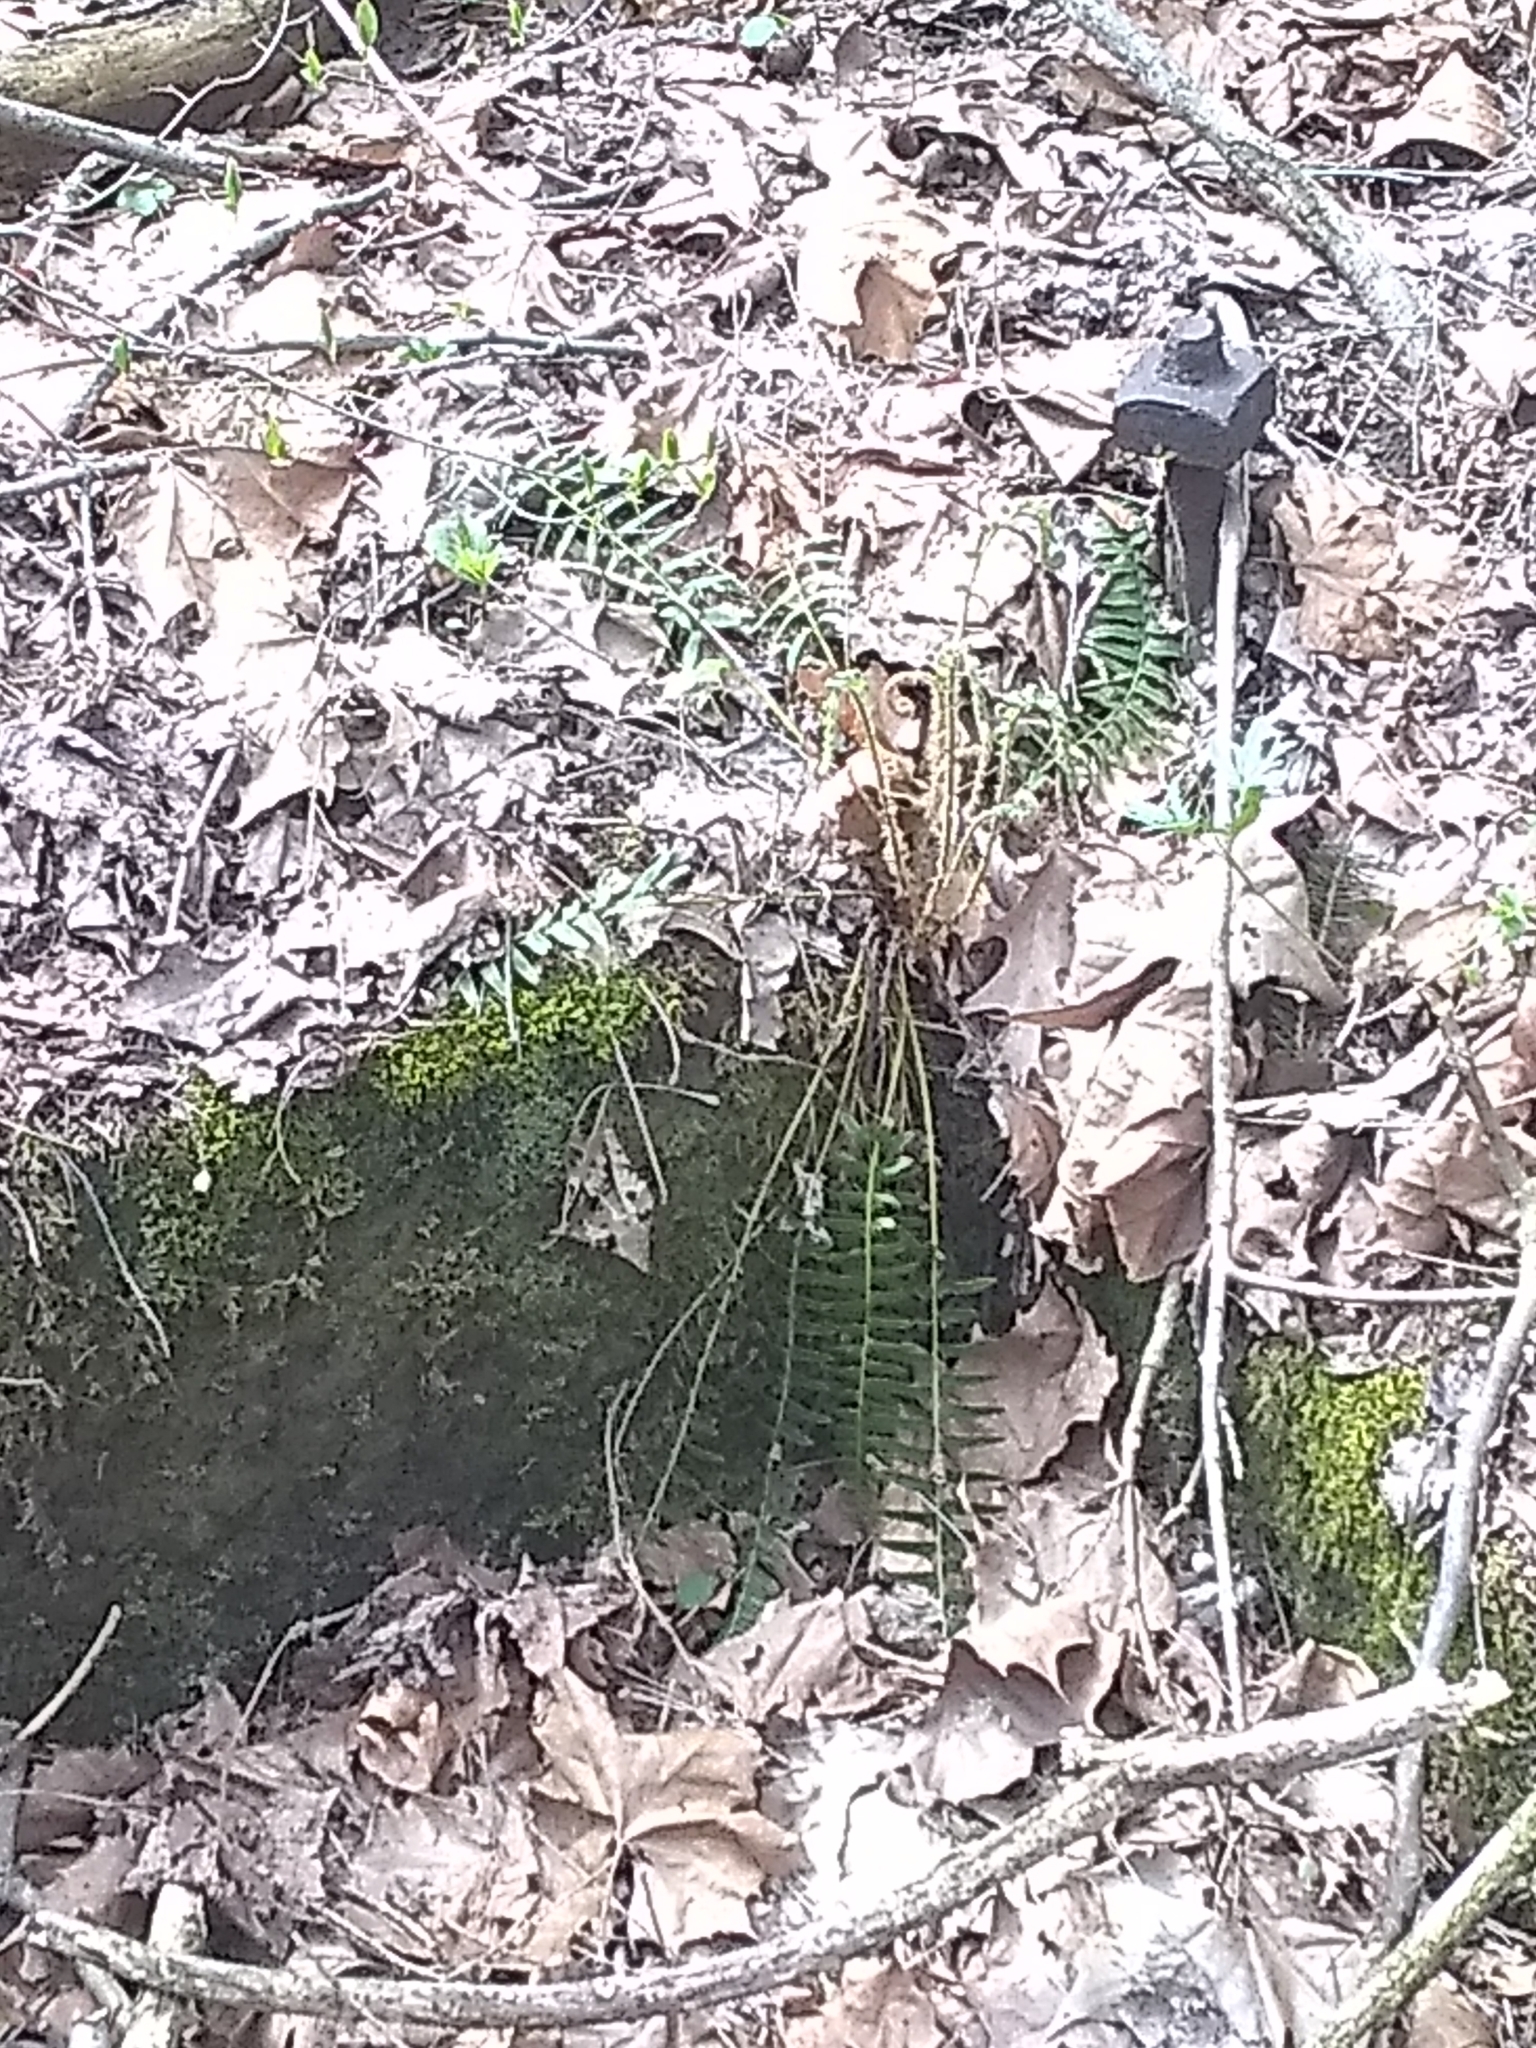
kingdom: Plantae
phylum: Tracheophyta
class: Polypodiopsida
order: Polypodiales
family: Dryopteridaceae
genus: Polystichum
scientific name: Polystichum acrostichoides
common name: Christmas fern
